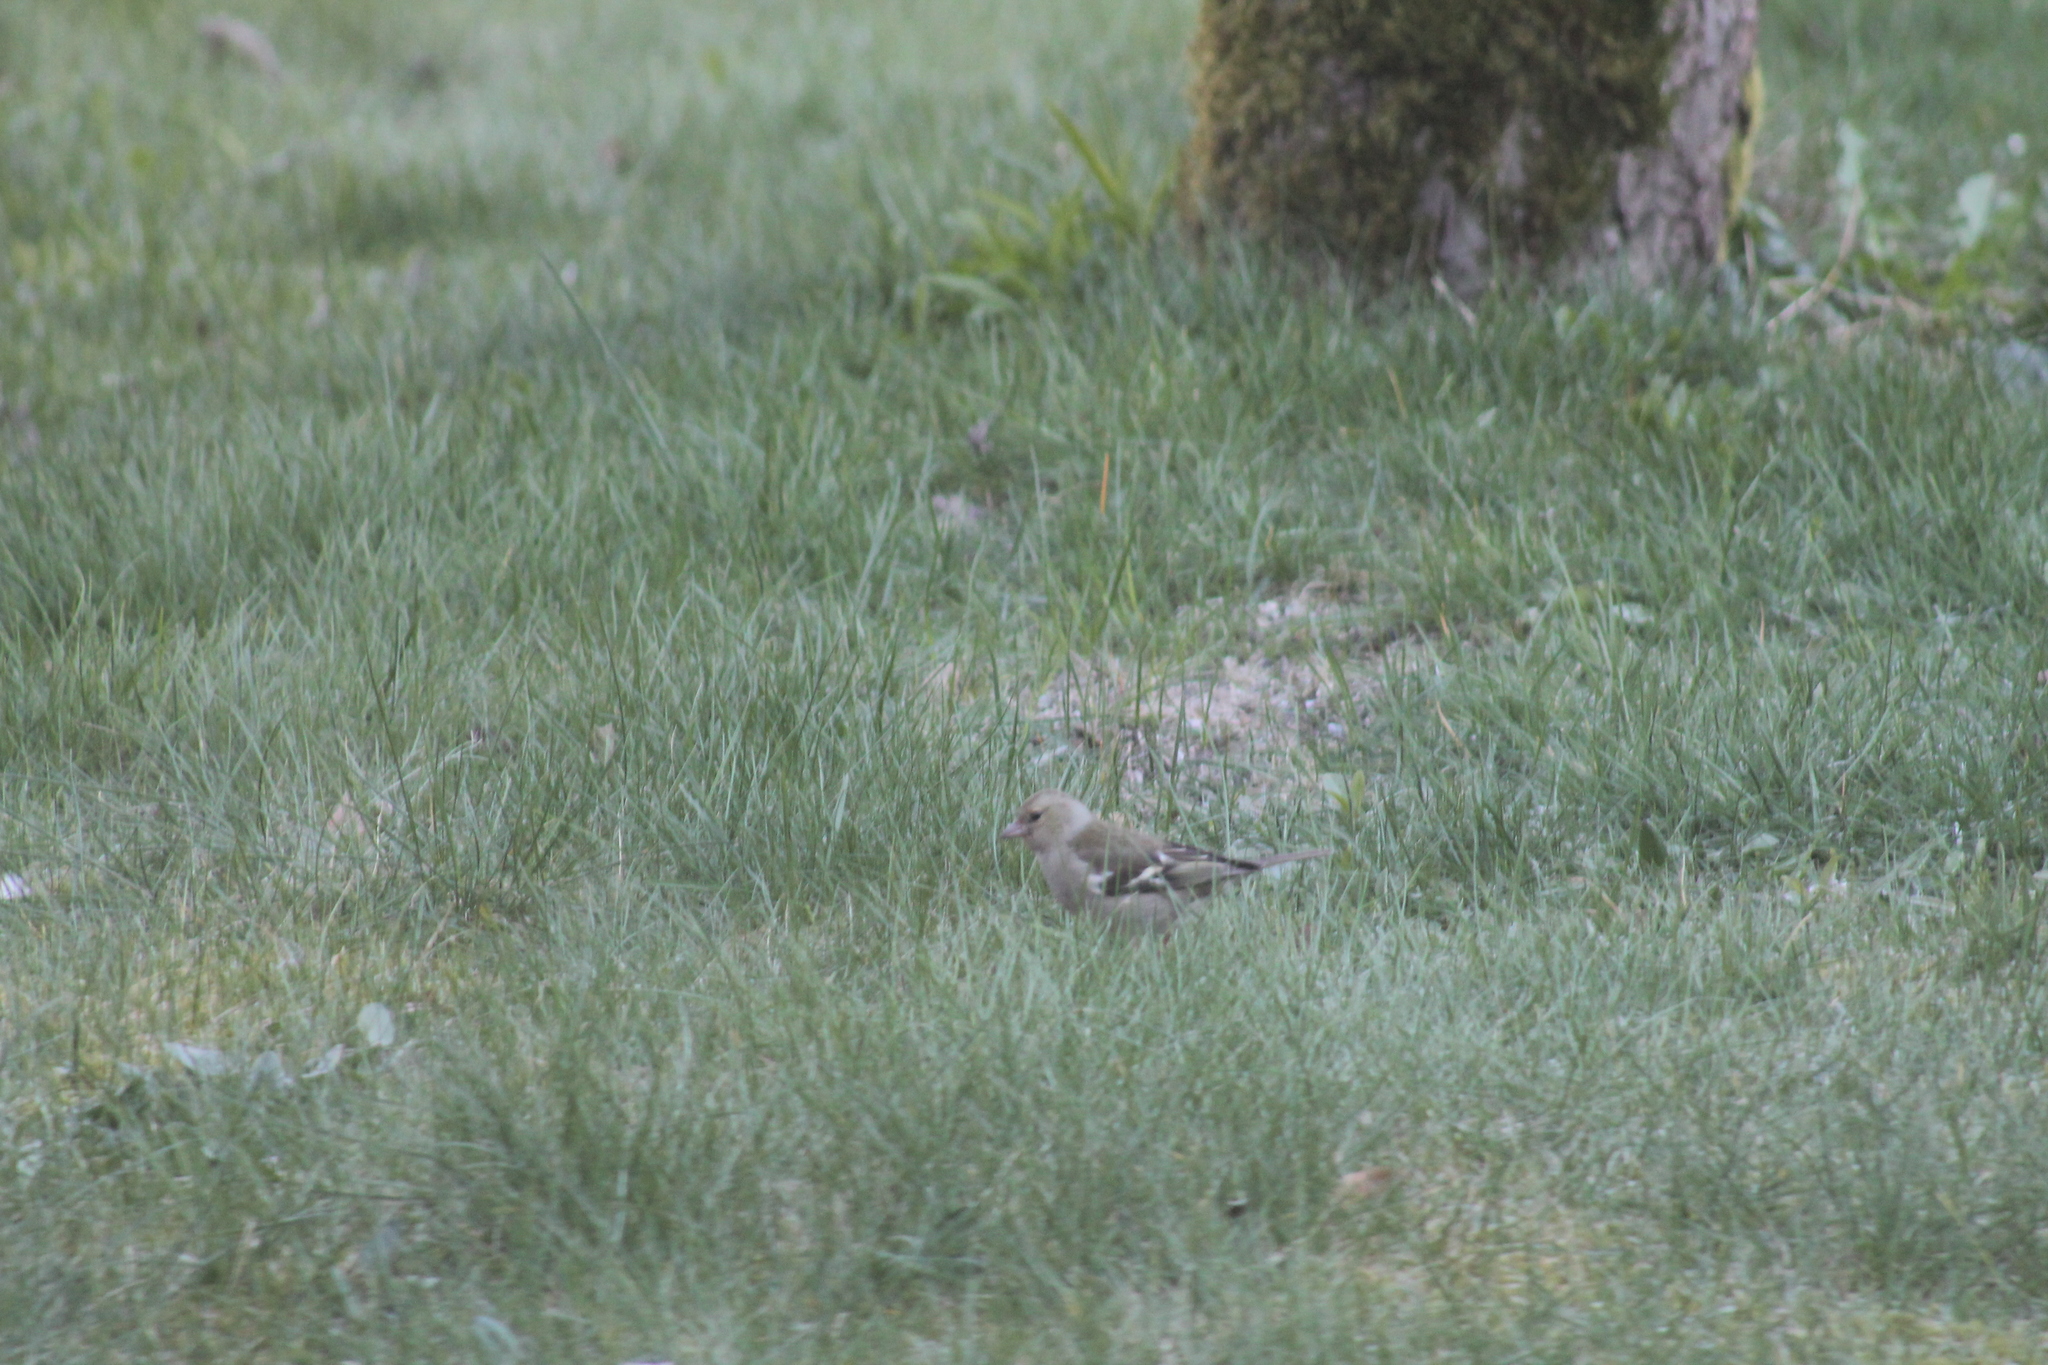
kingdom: Animalia
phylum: Chordata
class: Aves
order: Passeriformes
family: Fringillidae
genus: Fringilla
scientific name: Fringilla coelebs
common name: Common chaffinch
